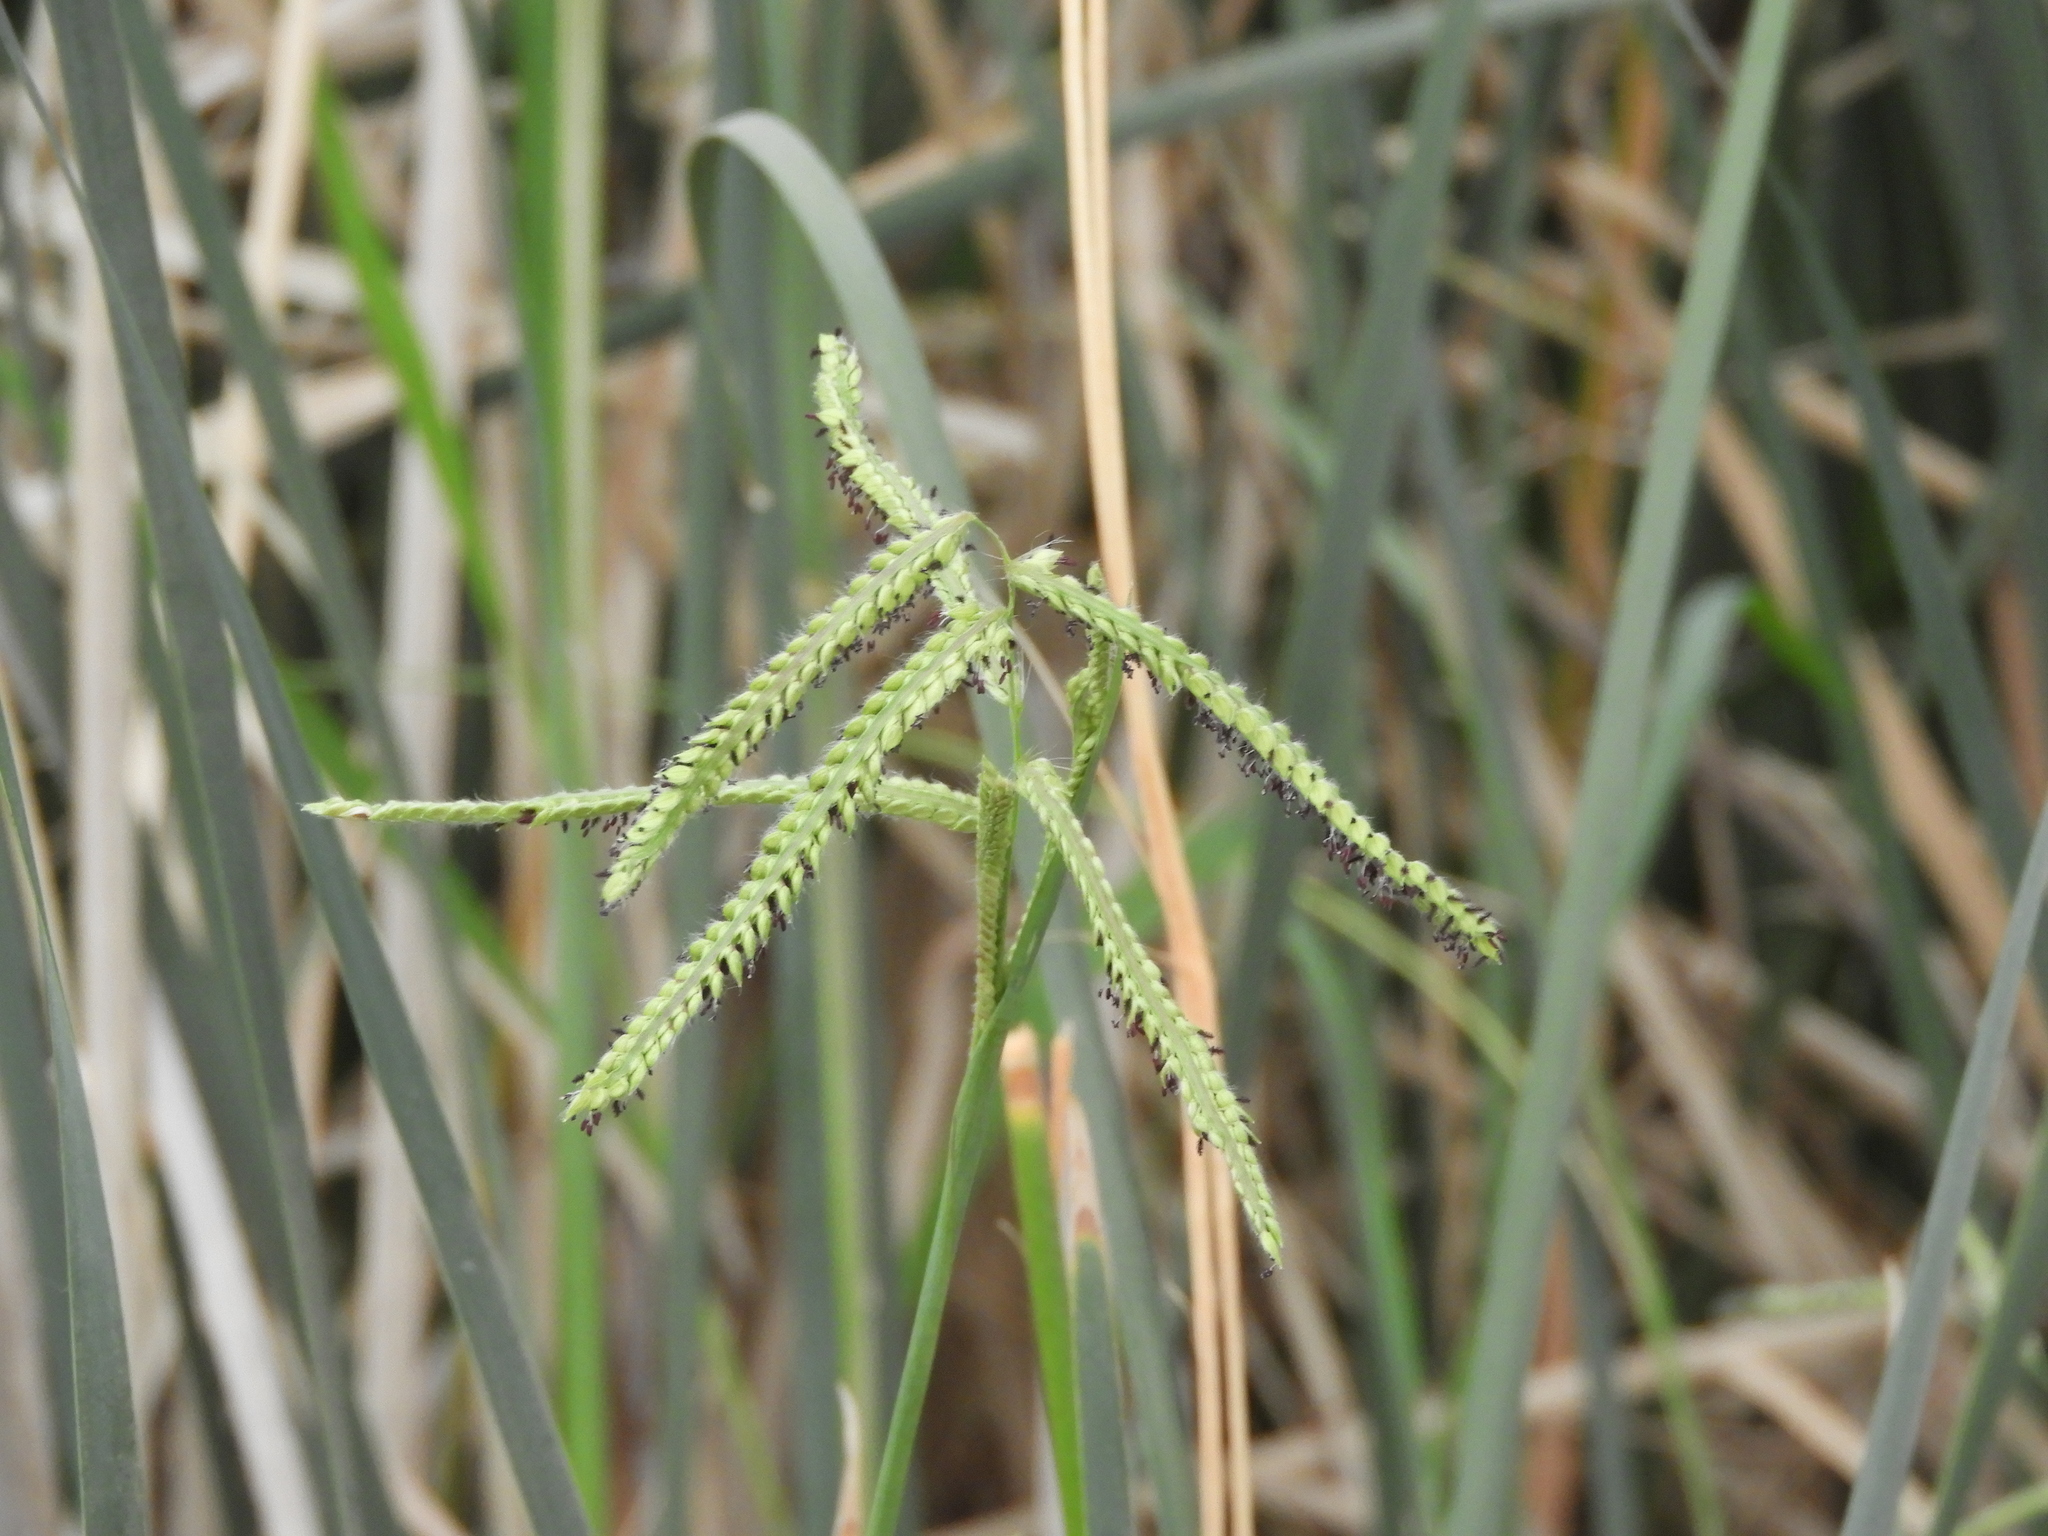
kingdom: Plantae
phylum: Tracheophyta
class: Liliopsida
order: Poales
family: Poaceae
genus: Paspalum
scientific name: Paspalum dilatatum
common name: Dallisgrass
